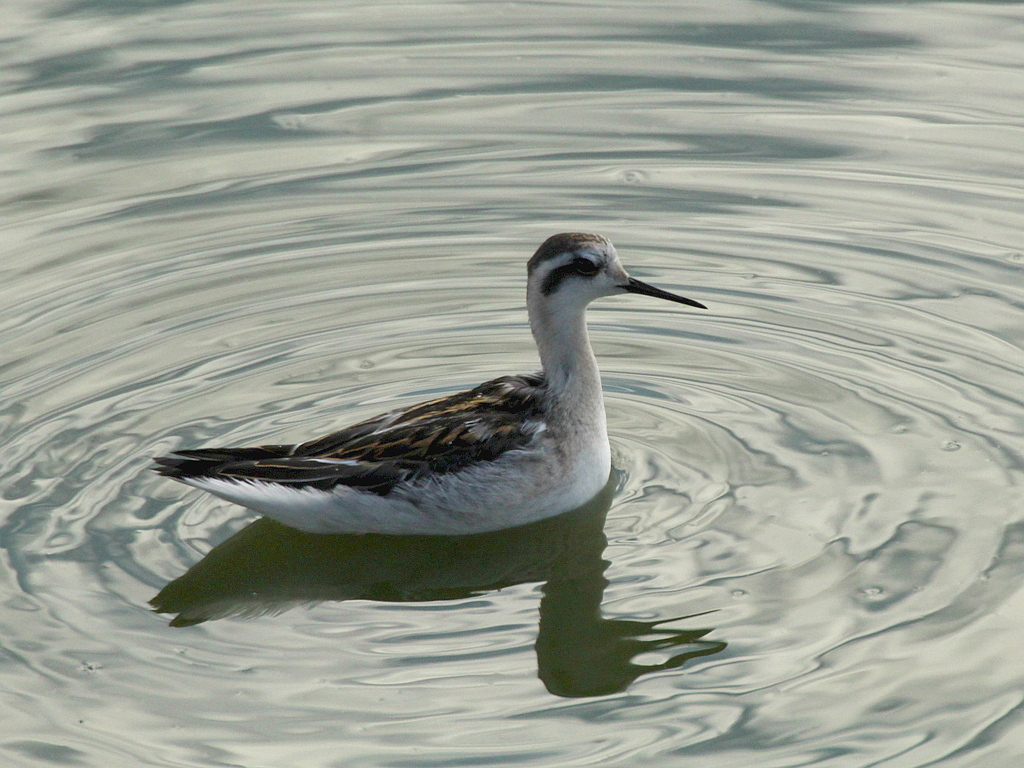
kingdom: Animalia
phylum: Chordata
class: Aves
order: Charadriiformes
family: Scolopacidae
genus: Phalaropus
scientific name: Phalaropus lobatus
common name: Red-necked phalarope
